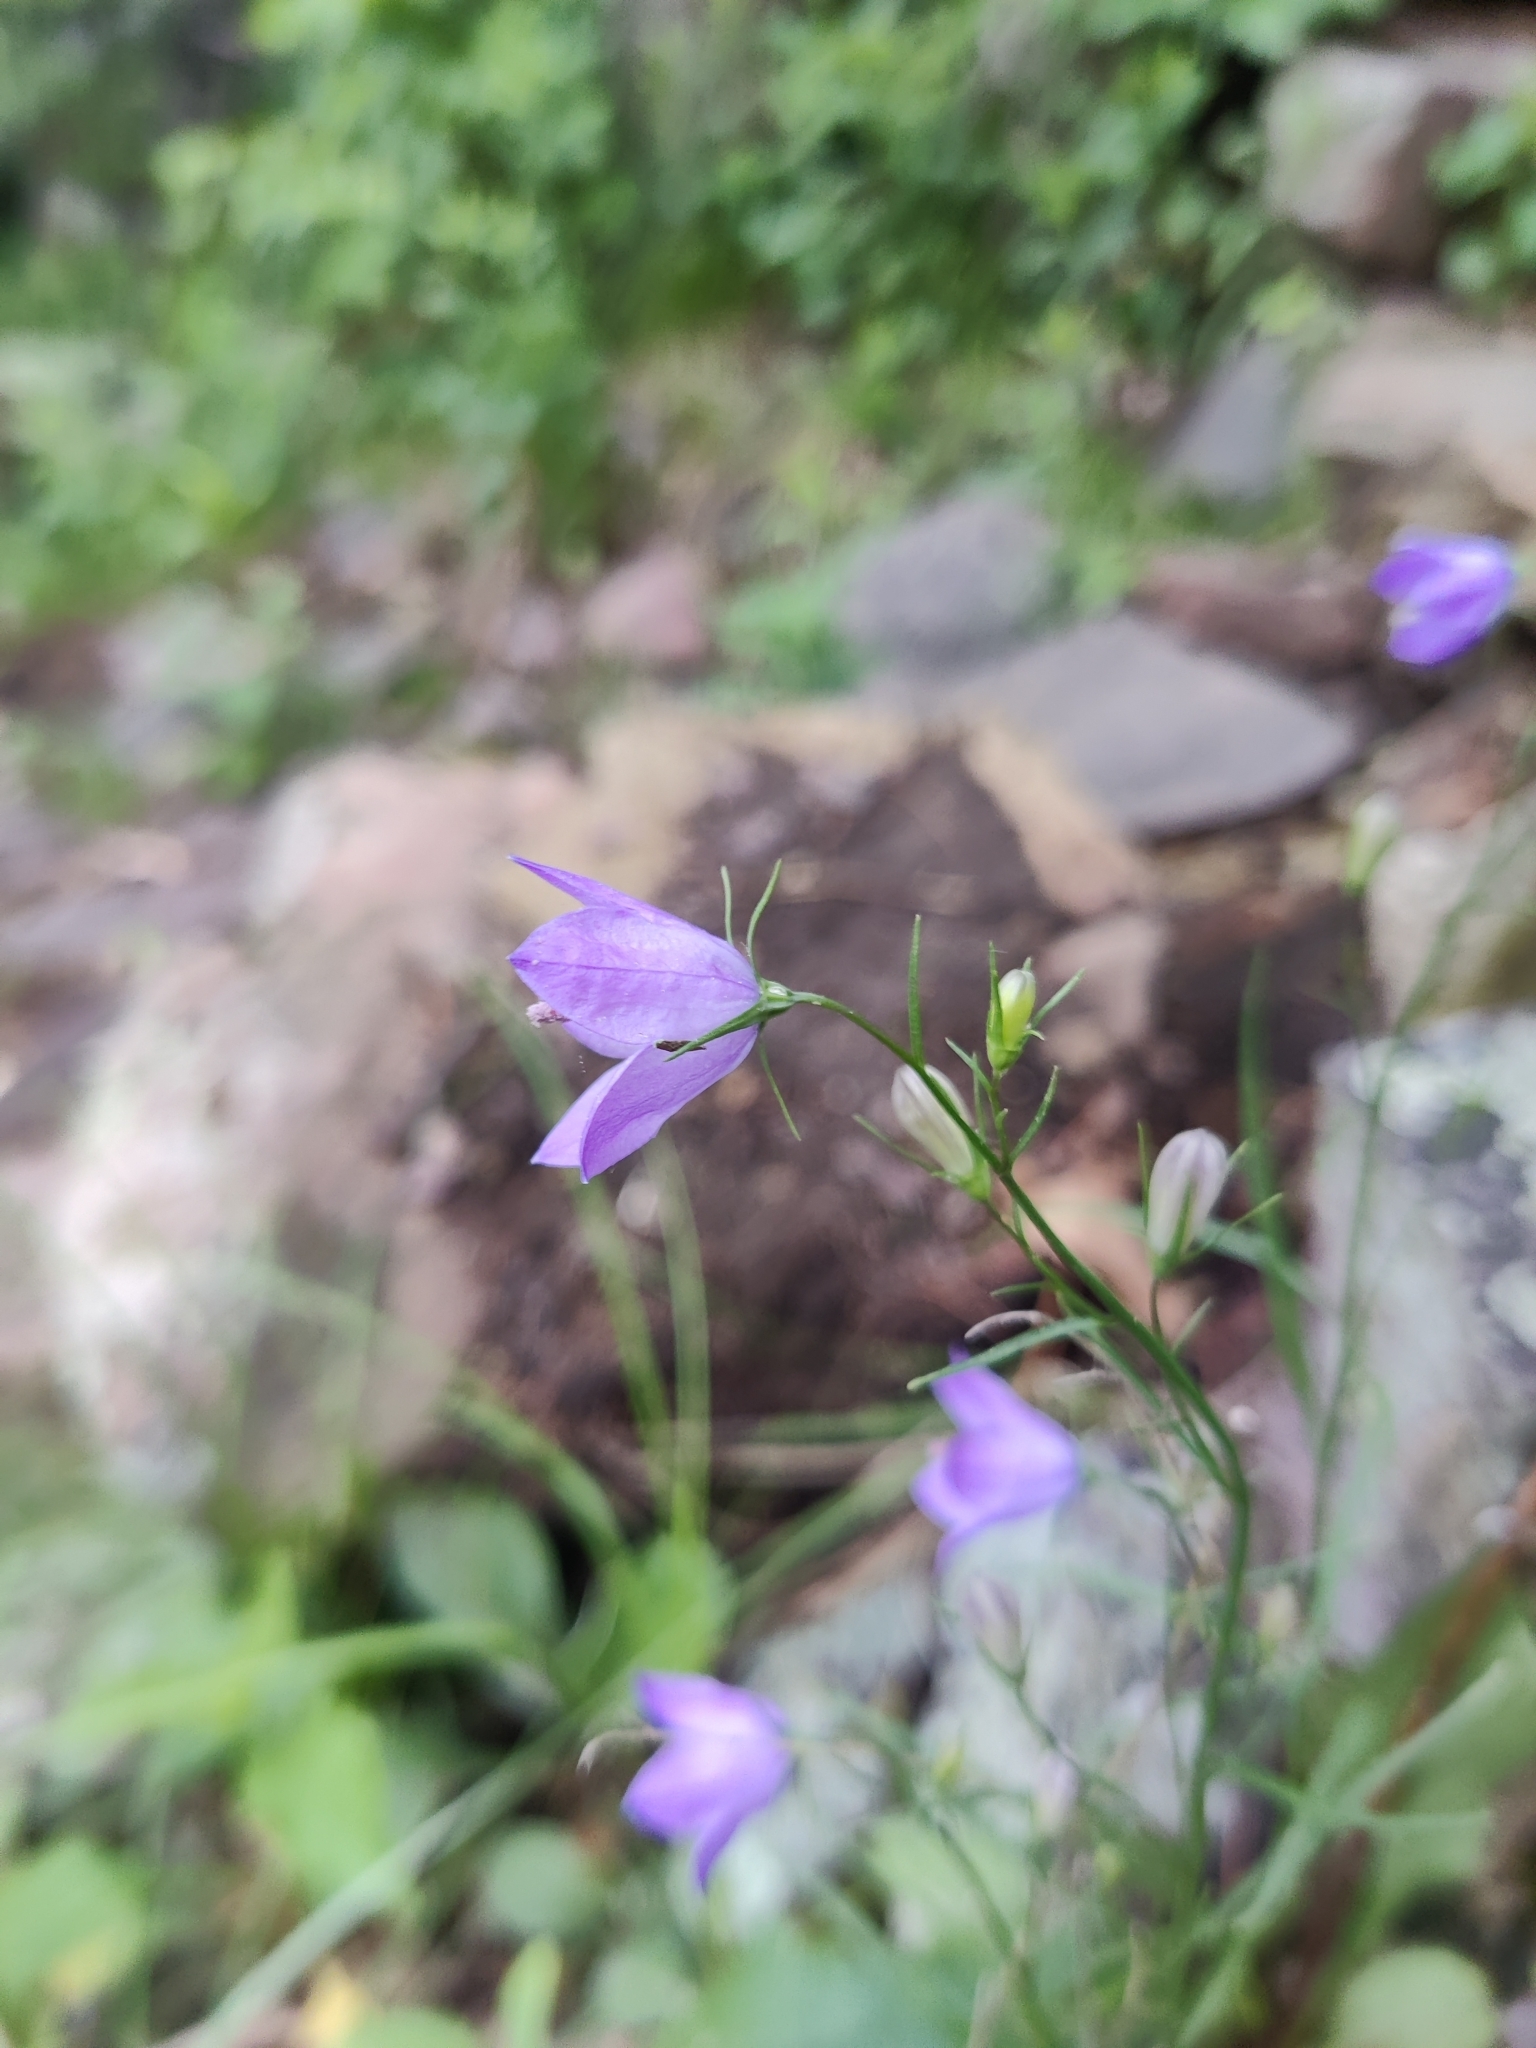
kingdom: Plantae
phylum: Tracheophyta
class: Magnoliopsida
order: Asterales
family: Campanulaceae
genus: Campanula
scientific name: Campanula intercedens
